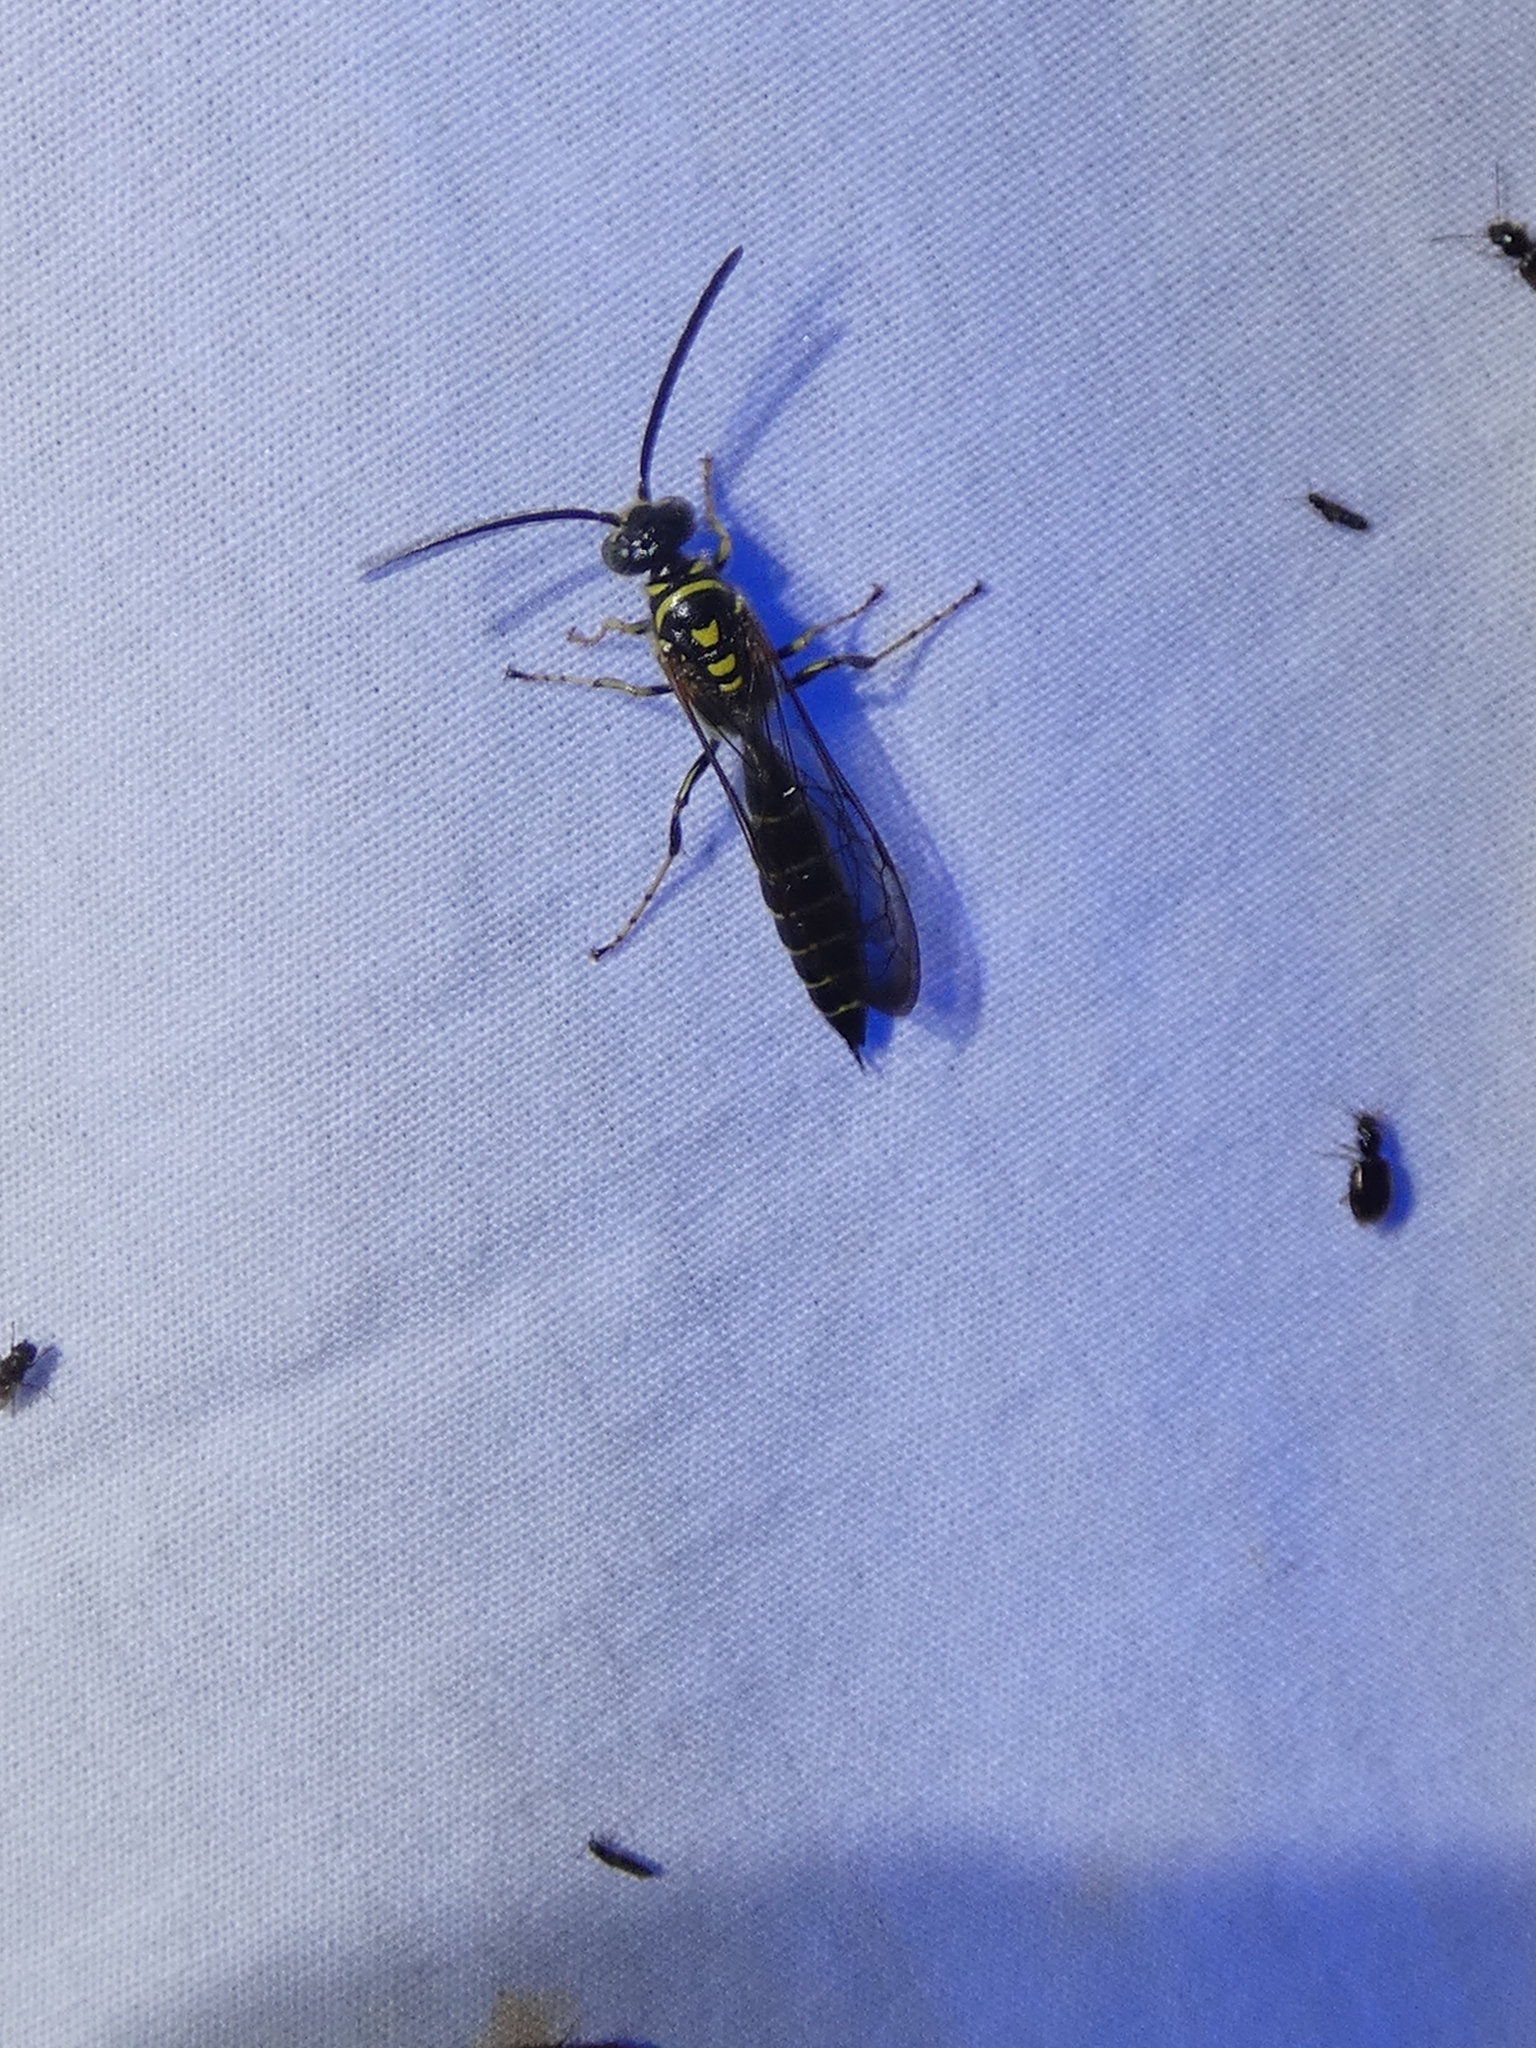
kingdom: Animalia
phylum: Arthropoda
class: Insecta
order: Hymenoptera
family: Tiphiidae
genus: Myzinum
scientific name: Myzinum
